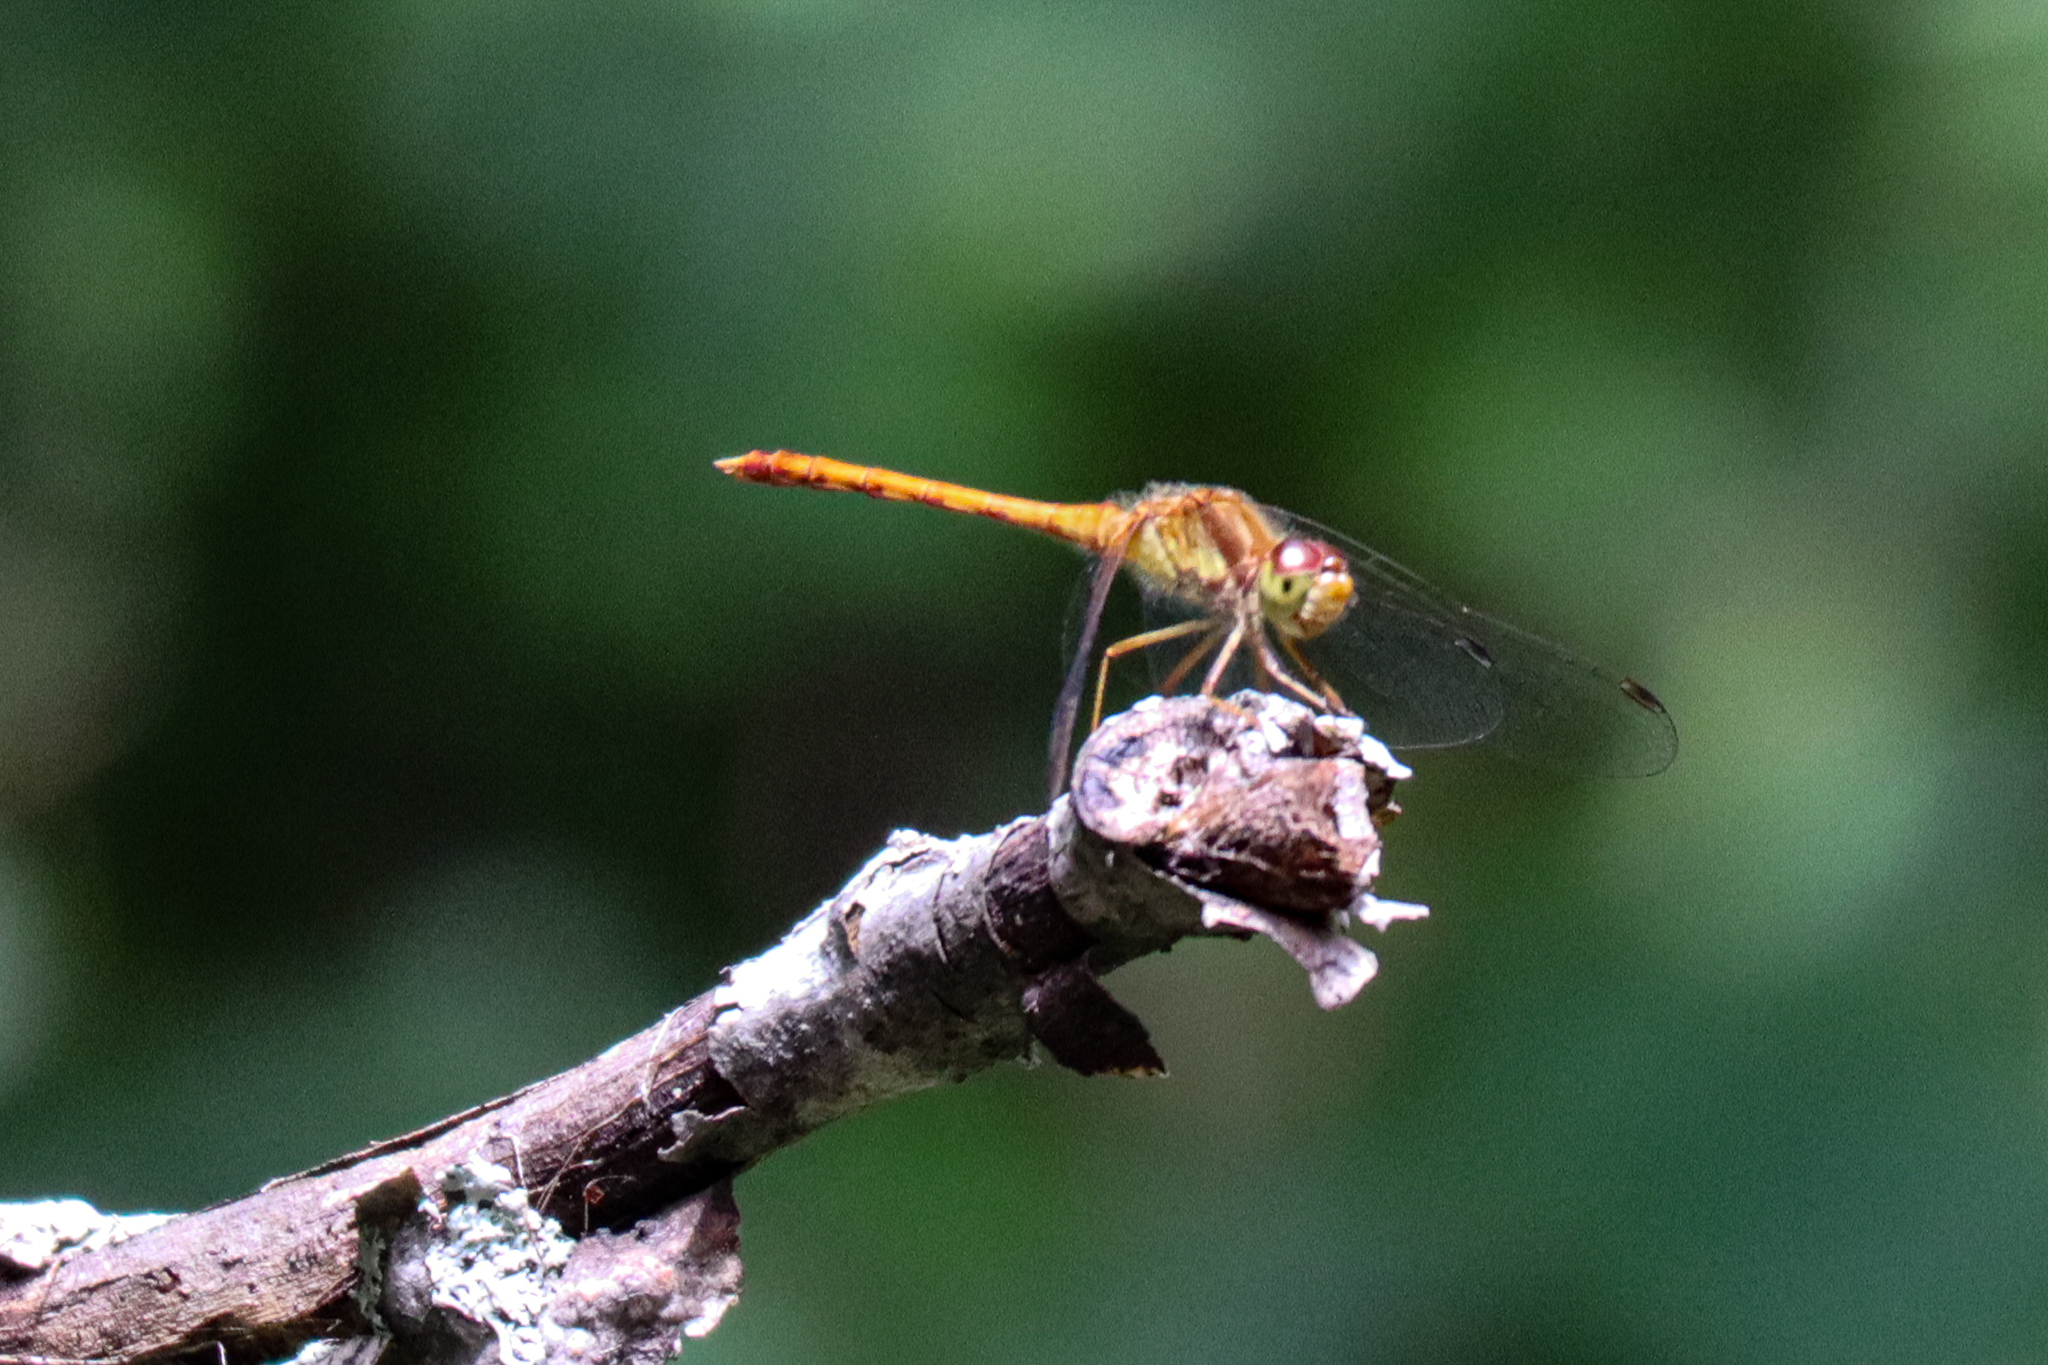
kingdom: Animalia
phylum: Arthropoda
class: Insecta
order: Odonata
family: Libellulidae
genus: Sympetrum
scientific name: Sympetrum vicinum
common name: Autumn meadowhawk
